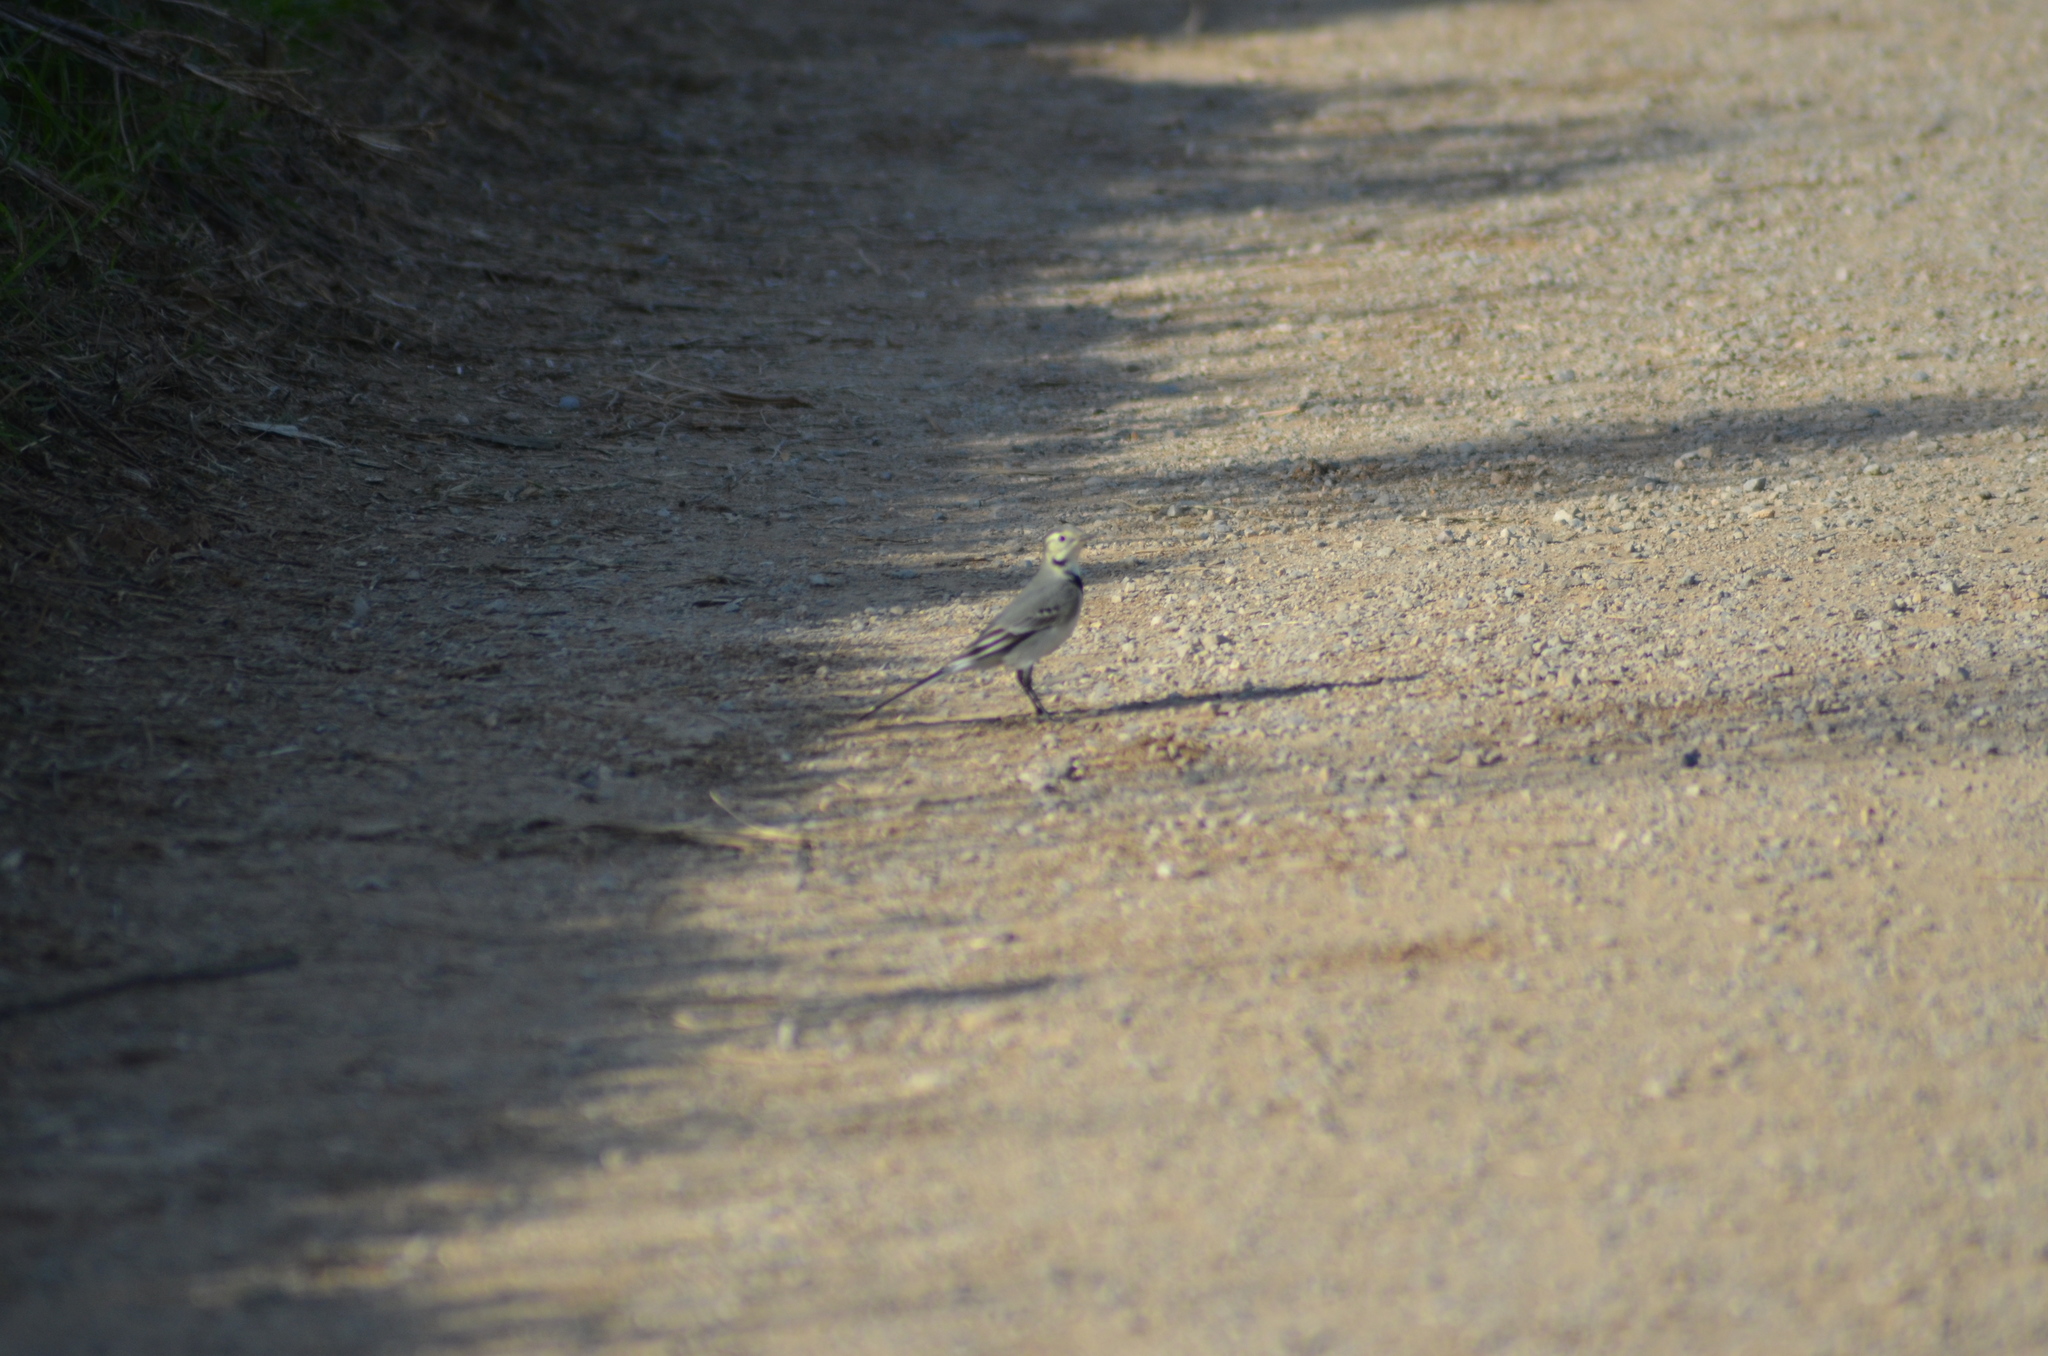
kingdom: Animalia
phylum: Chordata
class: Aves
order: Passeriformes
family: Motacillidae
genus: Motacilla
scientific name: Motacilla alba
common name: White wagtail
